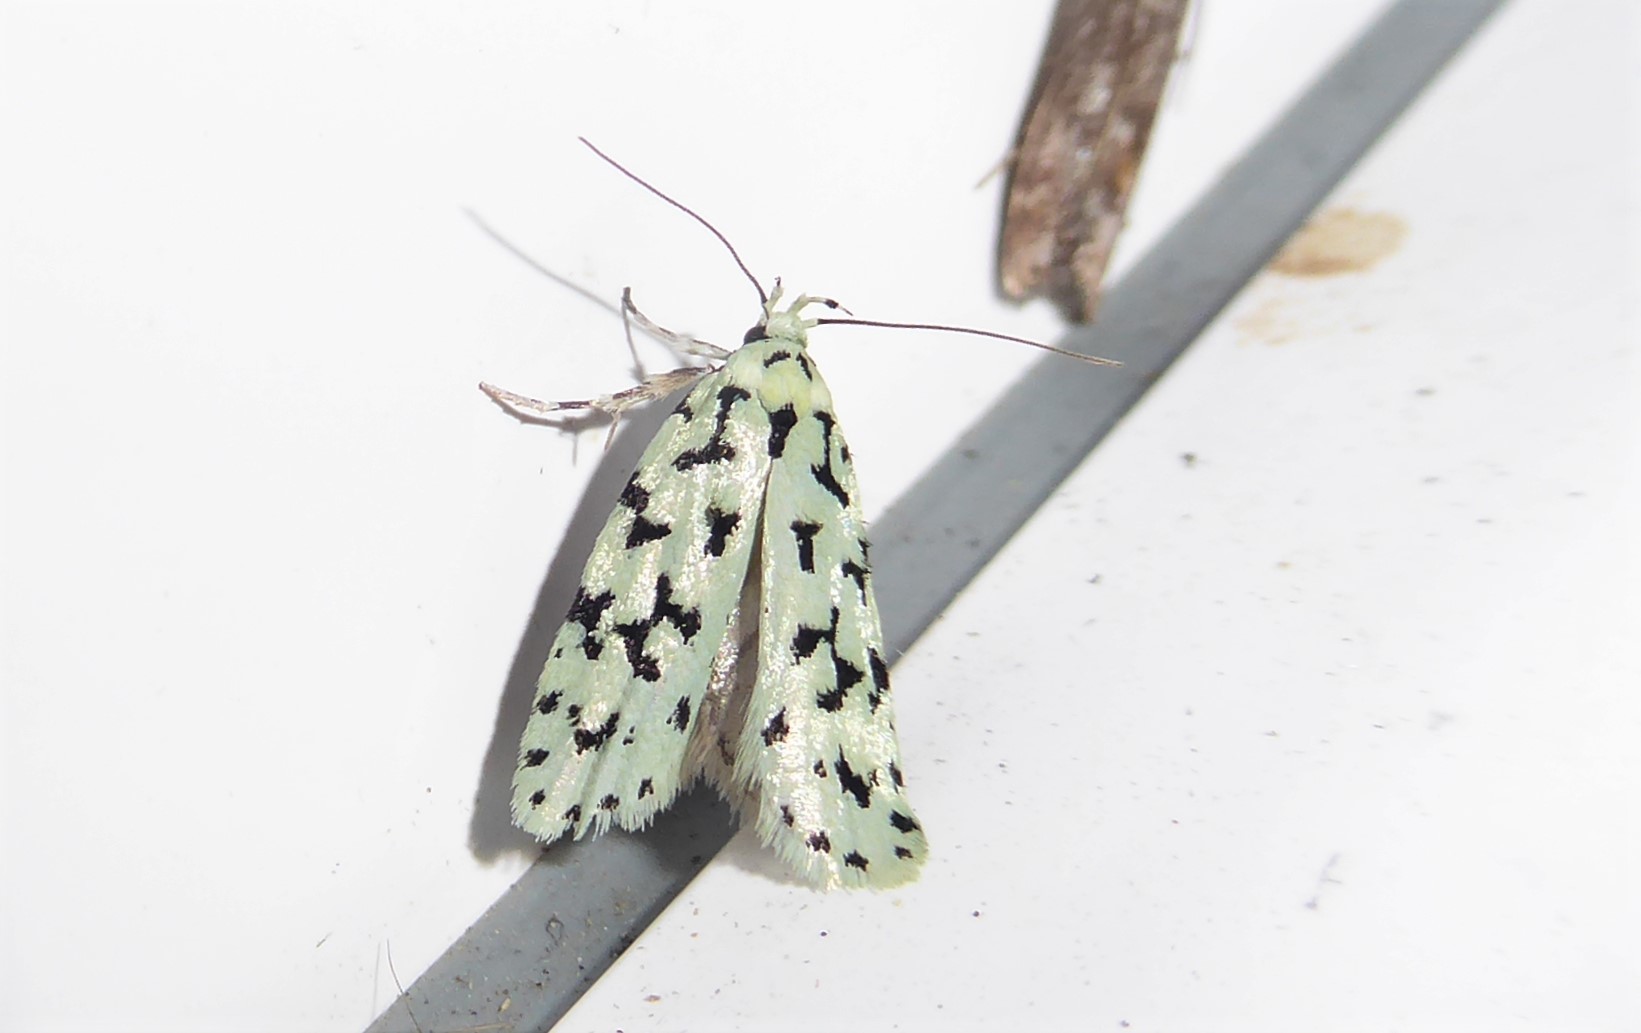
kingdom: Animalia
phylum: Arthropoda
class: Insecta
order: Lepidoptera
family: Oecophoridae
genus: Izatha
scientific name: Izatha huttoni
